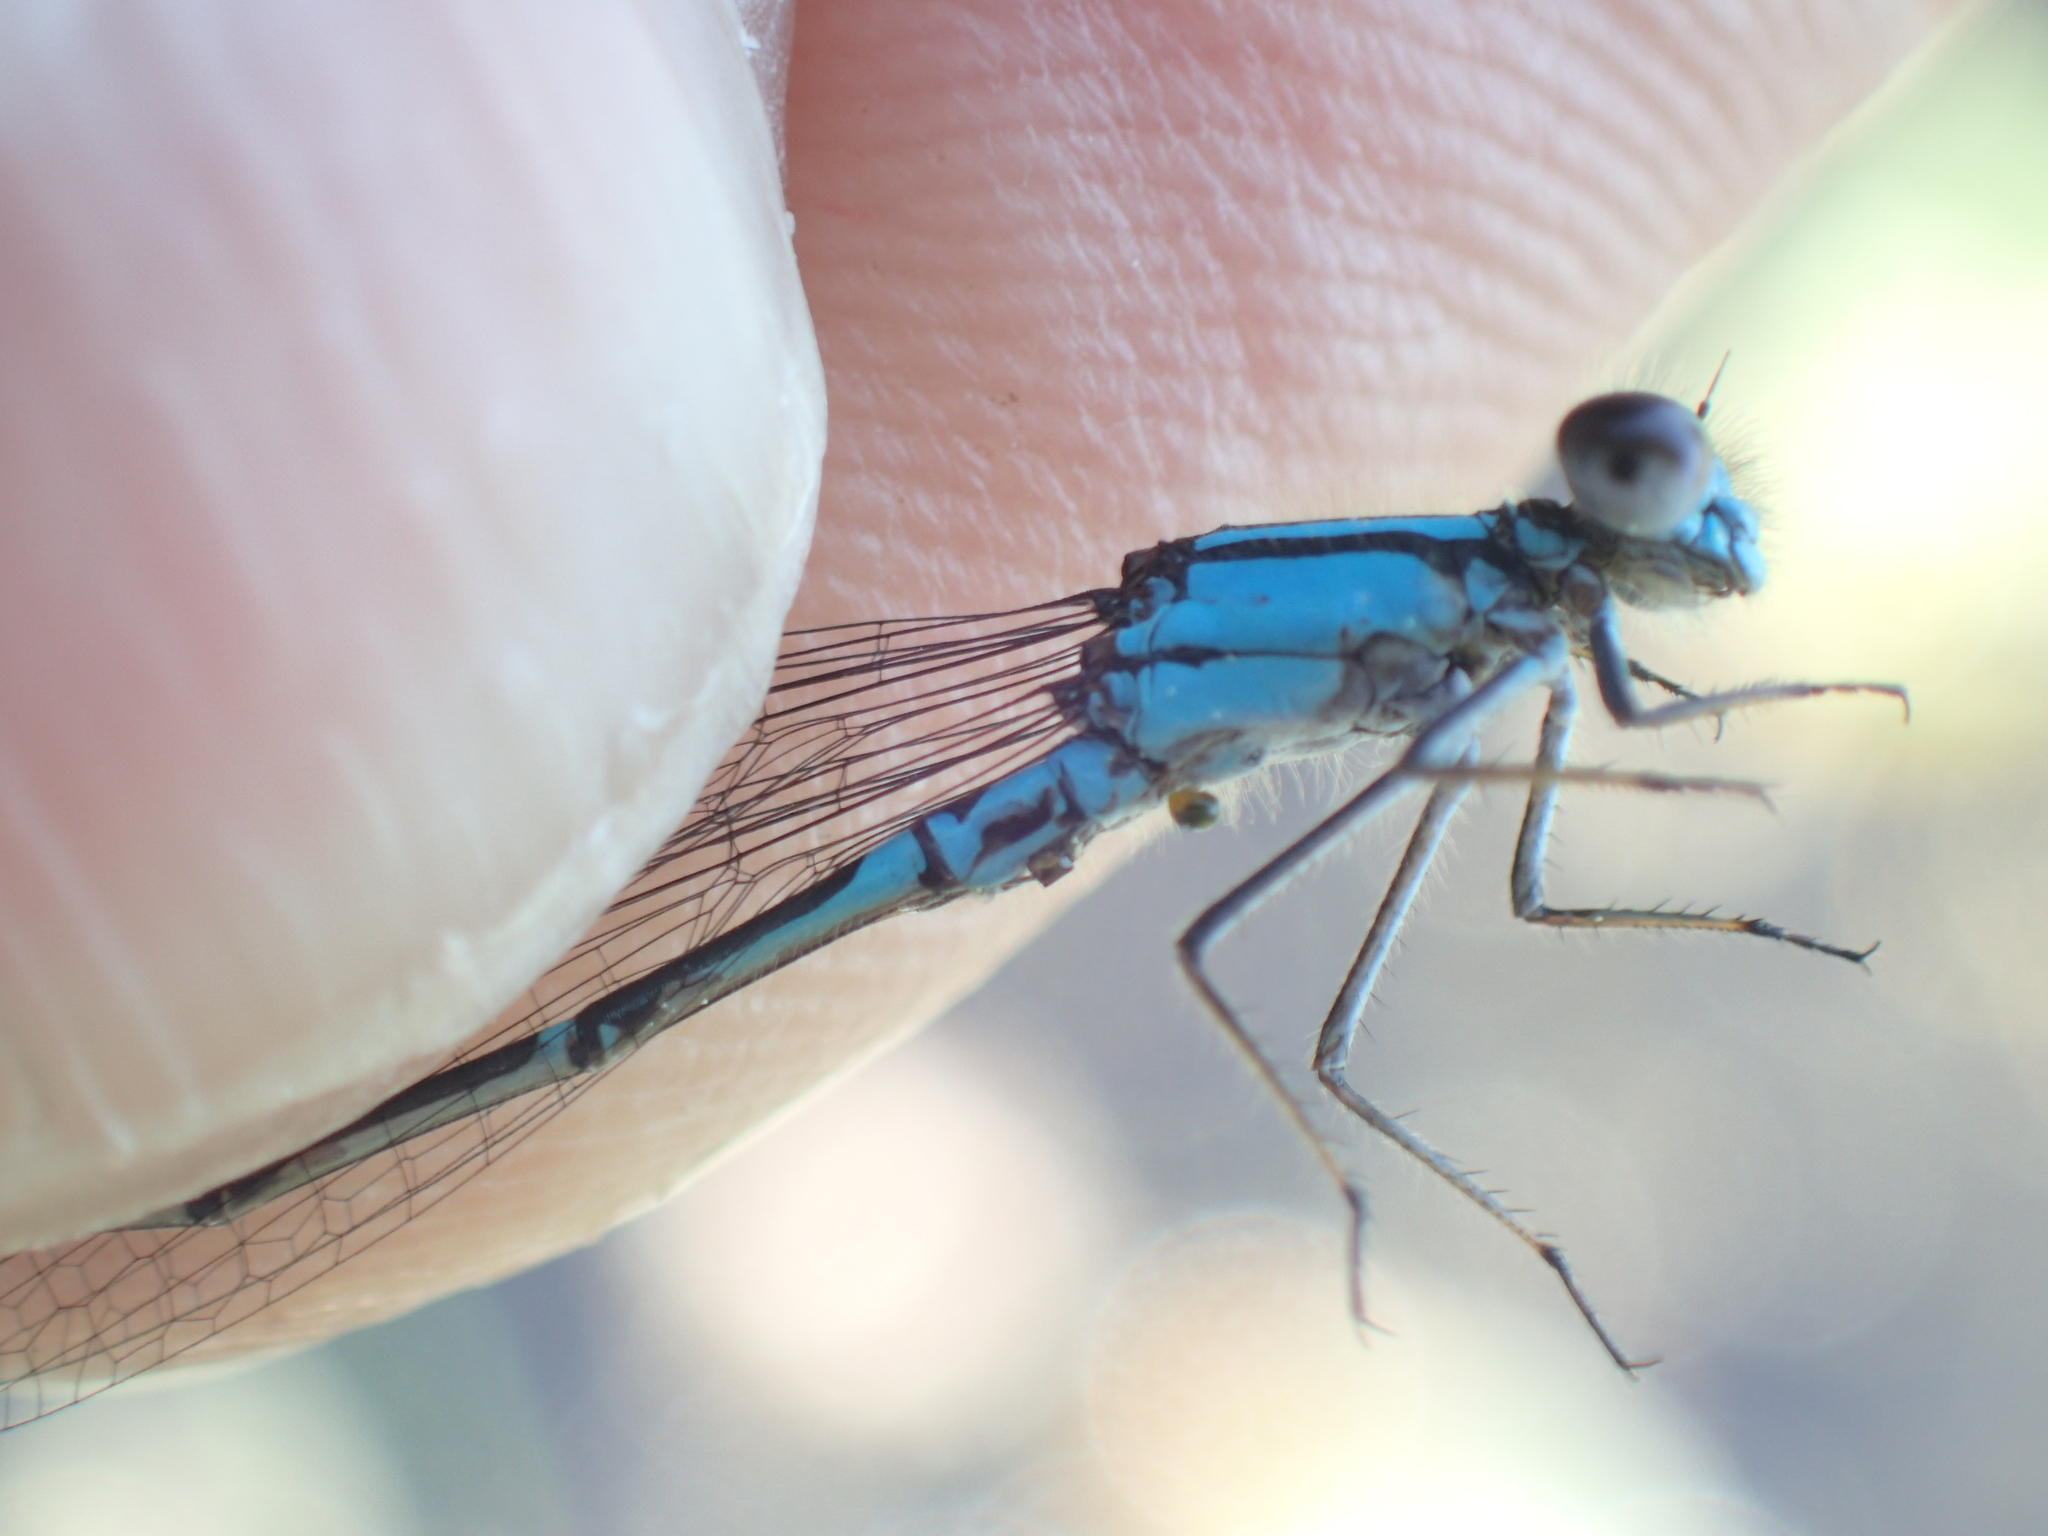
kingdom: Animalia
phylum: Arthropoda
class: Insecta
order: Odonata
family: Coenagrionidae
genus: Enallagma
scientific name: Enallagma geminatum
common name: Skimming bluet
